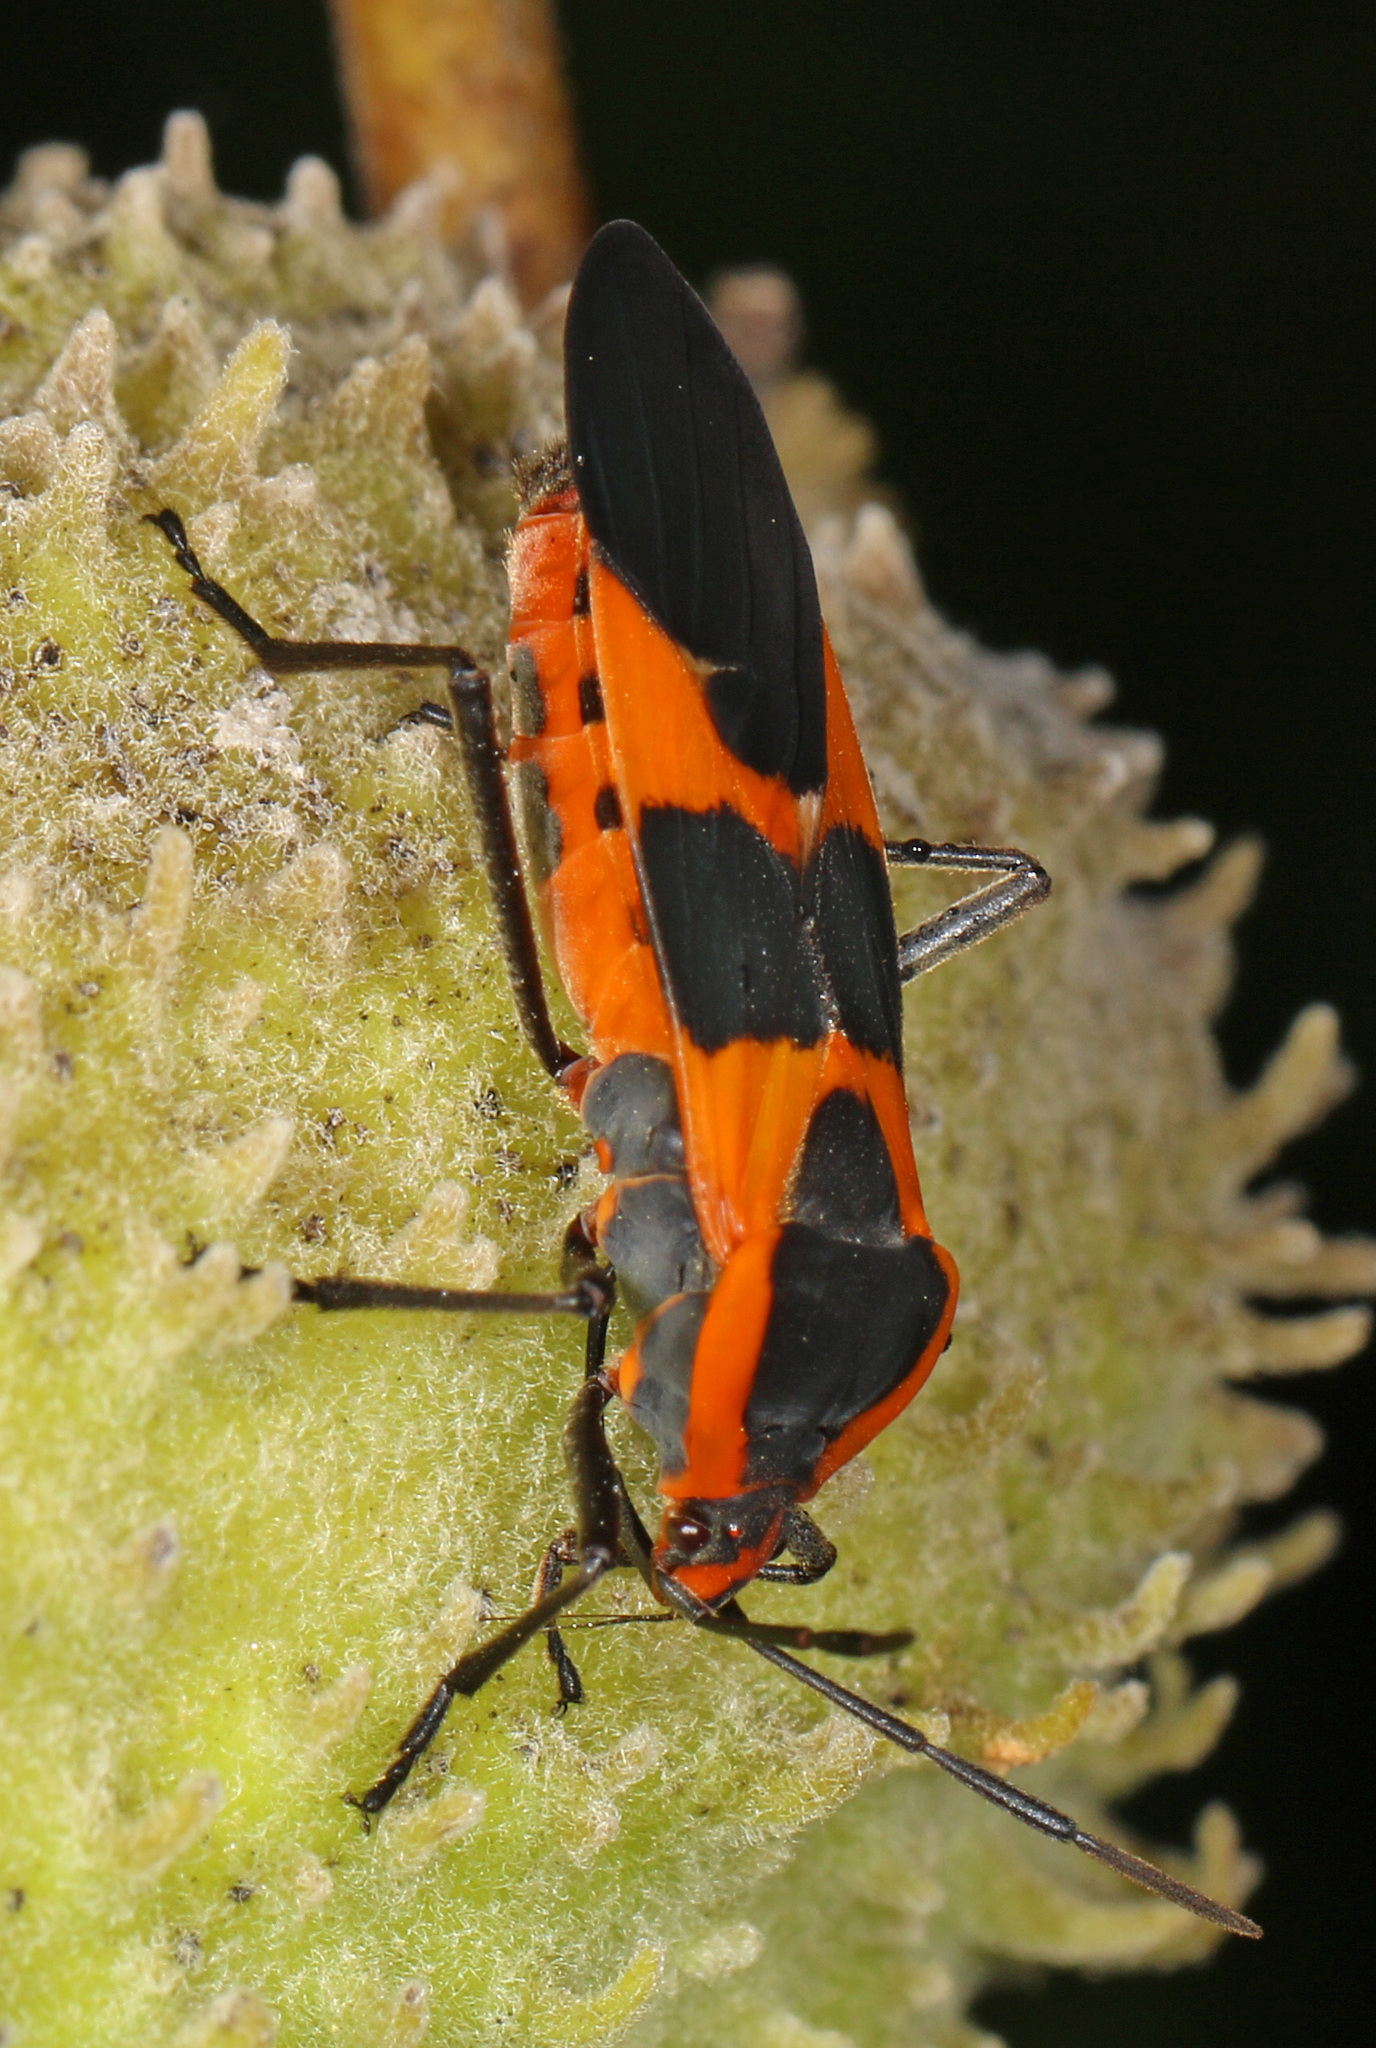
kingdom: Animalia
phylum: Arthropoda
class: Insecta
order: Hemiptera
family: Lygaeidae
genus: Oncopeltus
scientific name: Oncopeltus fasciatus
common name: Large milkweed bug
